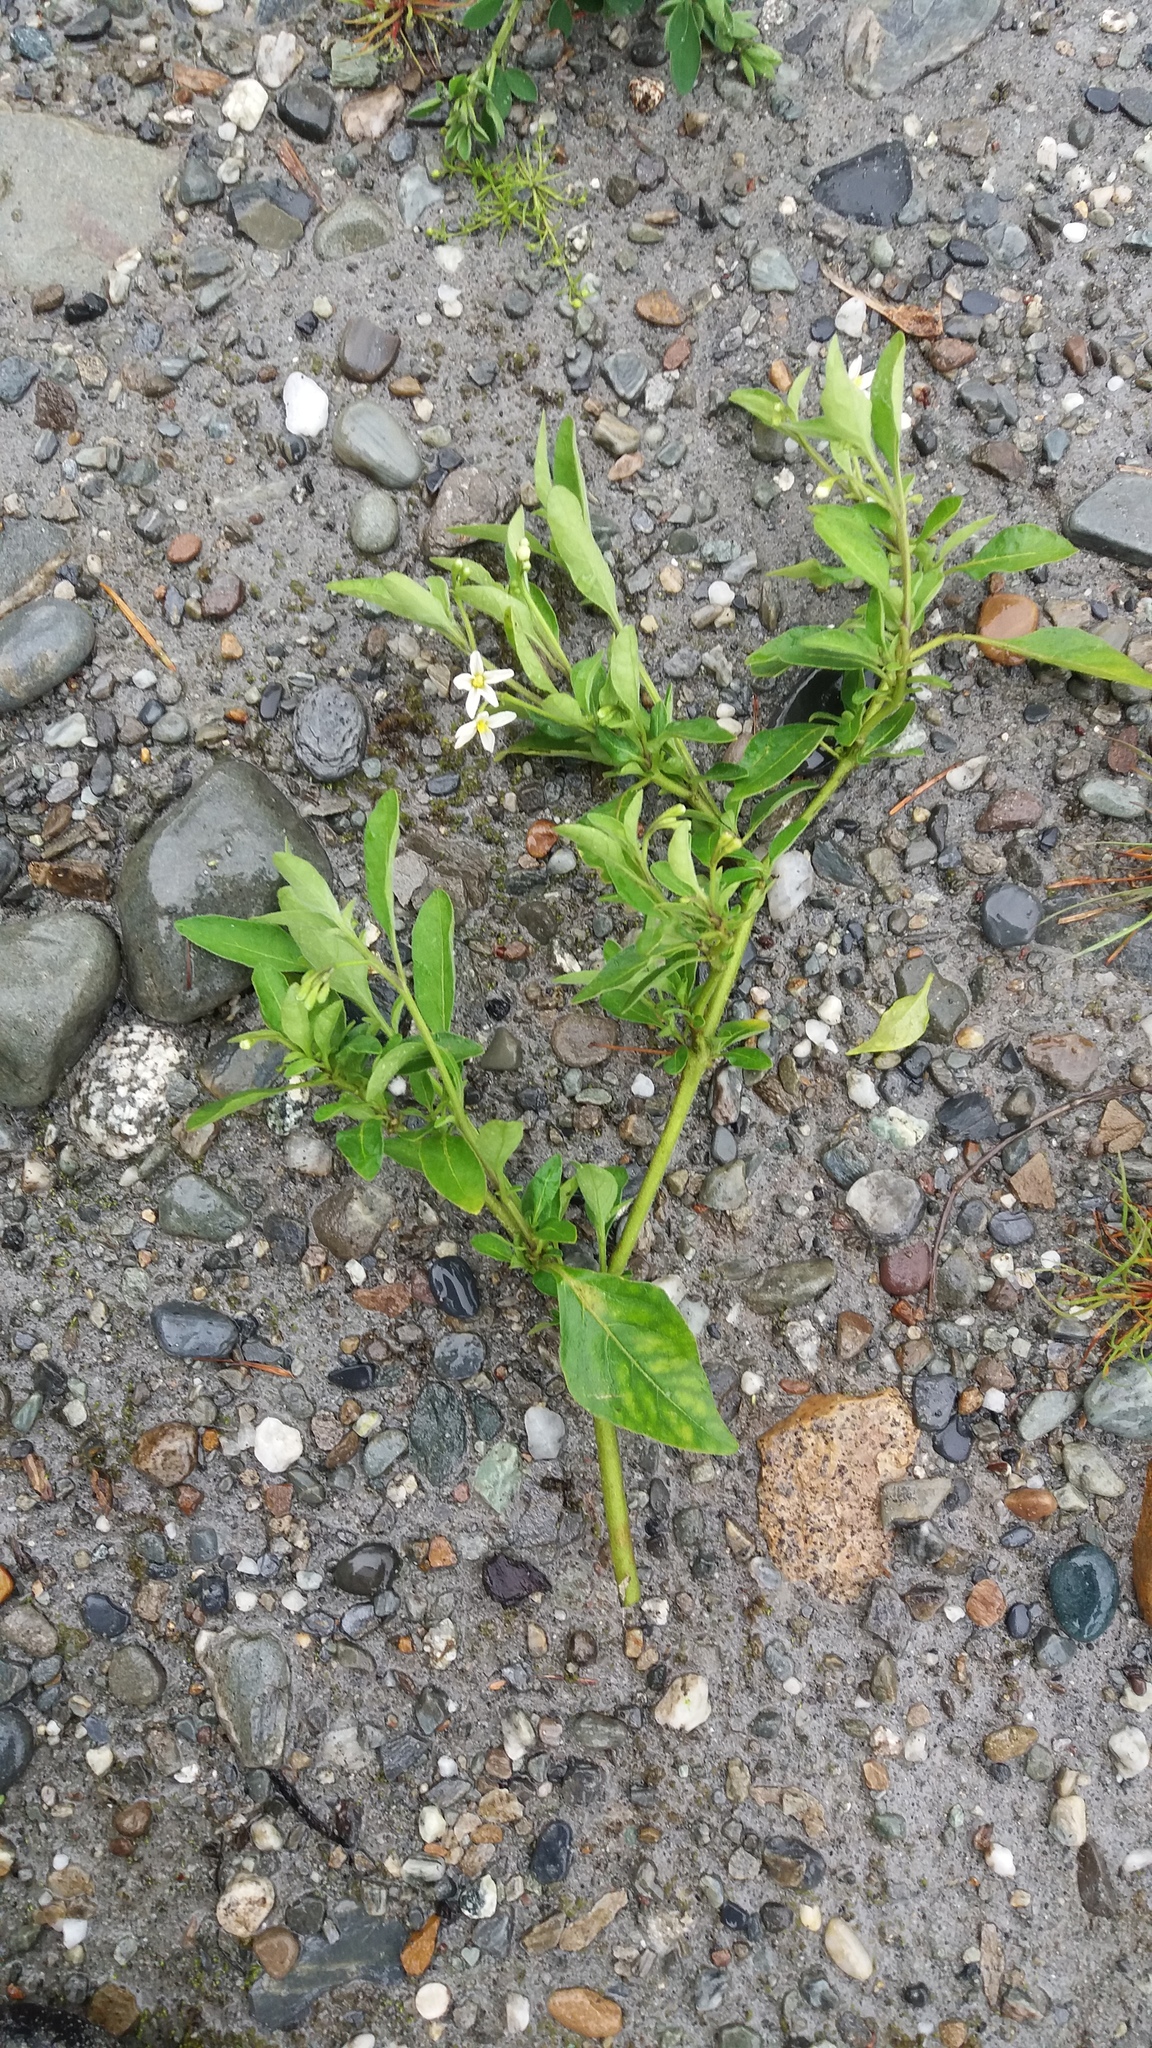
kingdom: Plantae
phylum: Tracheophyta
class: Magnoliopsida
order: Solanales
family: Solanaceae
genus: Solanum
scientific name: Solanum nigrum
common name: Black nightshade
